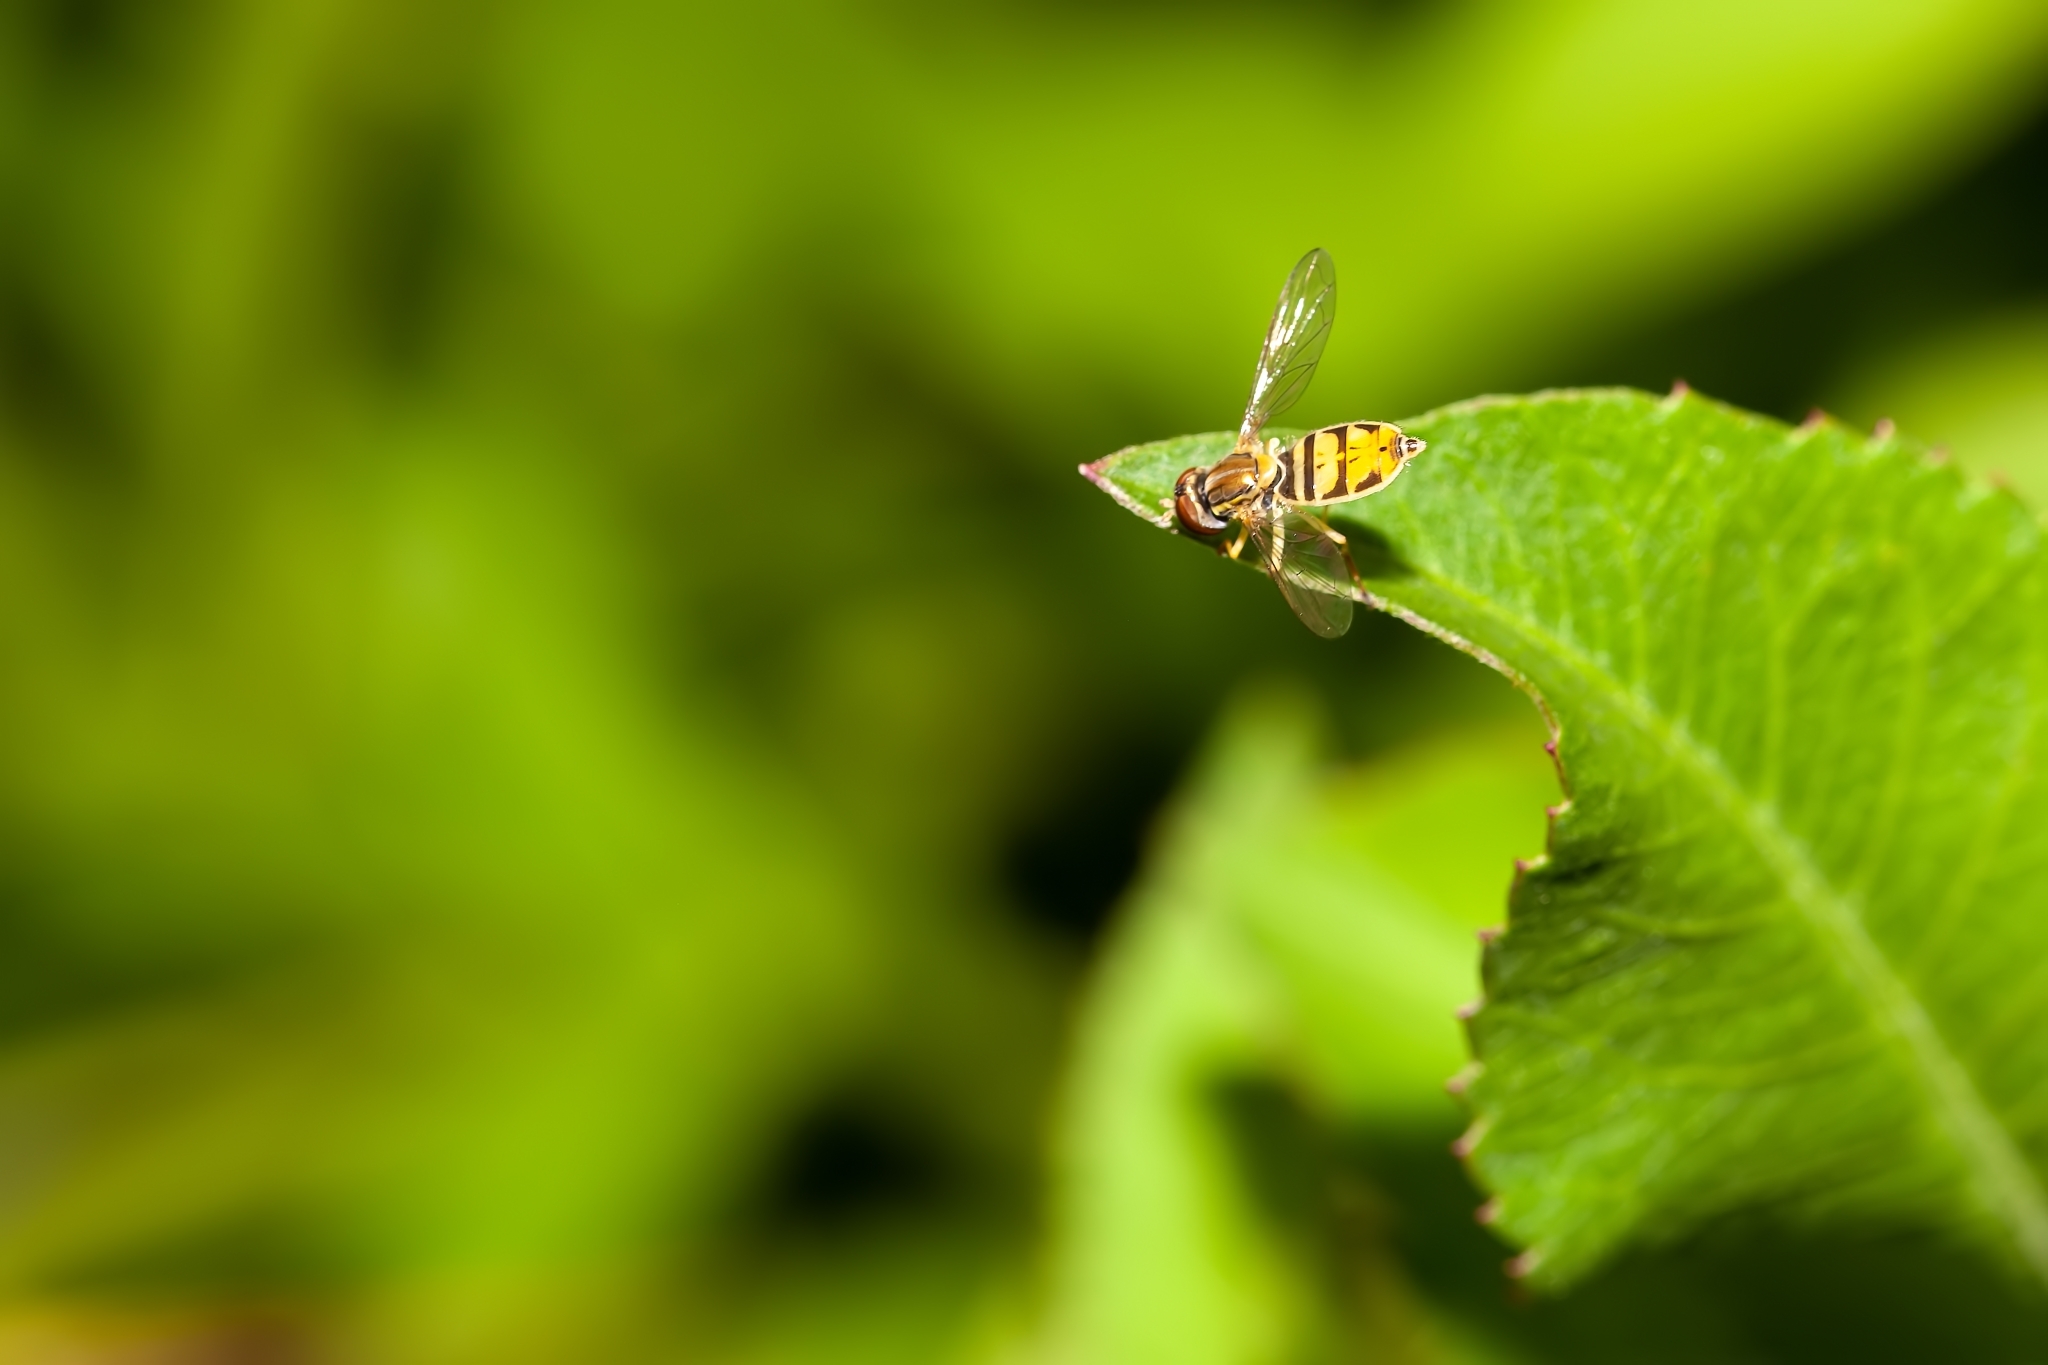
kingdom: Animalia
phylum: Arthropoda
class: Insecta
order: Diptera
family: Syrphidae
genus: Toxomerus
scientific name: Toxomerus marginatus
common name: Syrphid fly
